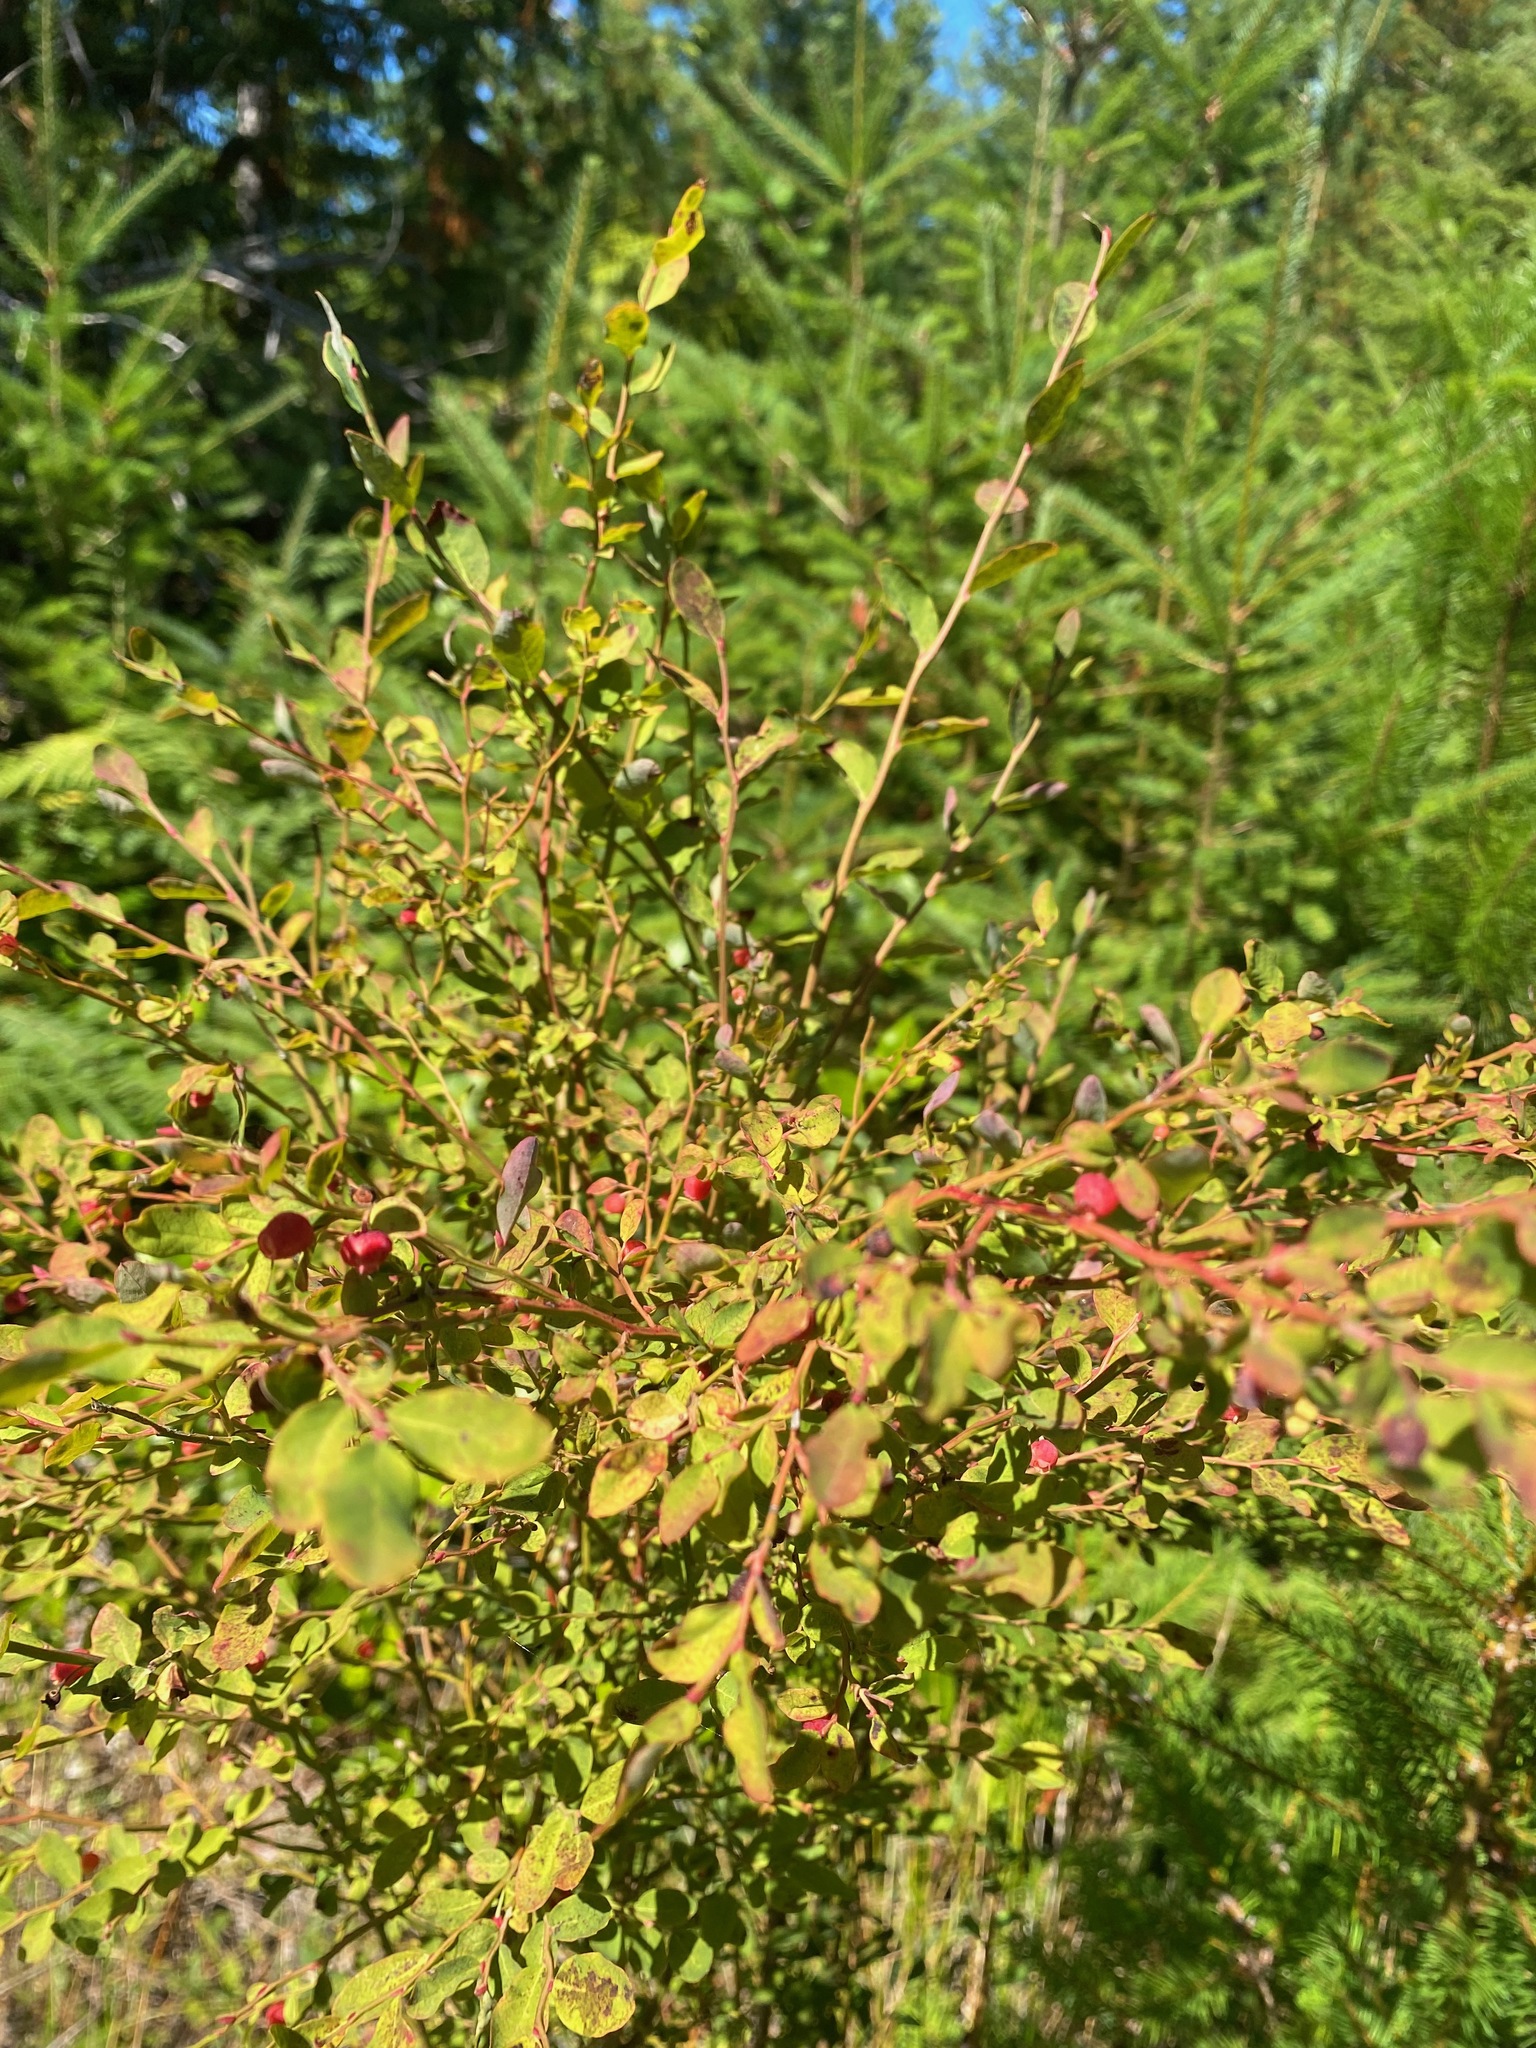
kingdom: Plantae
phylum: Tracheophyta
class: Magnoliopsida
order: Ericales
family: Ericaceae
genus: Vaccinium
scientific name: Vaccinium parvifolium
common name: Red-huckleberry
